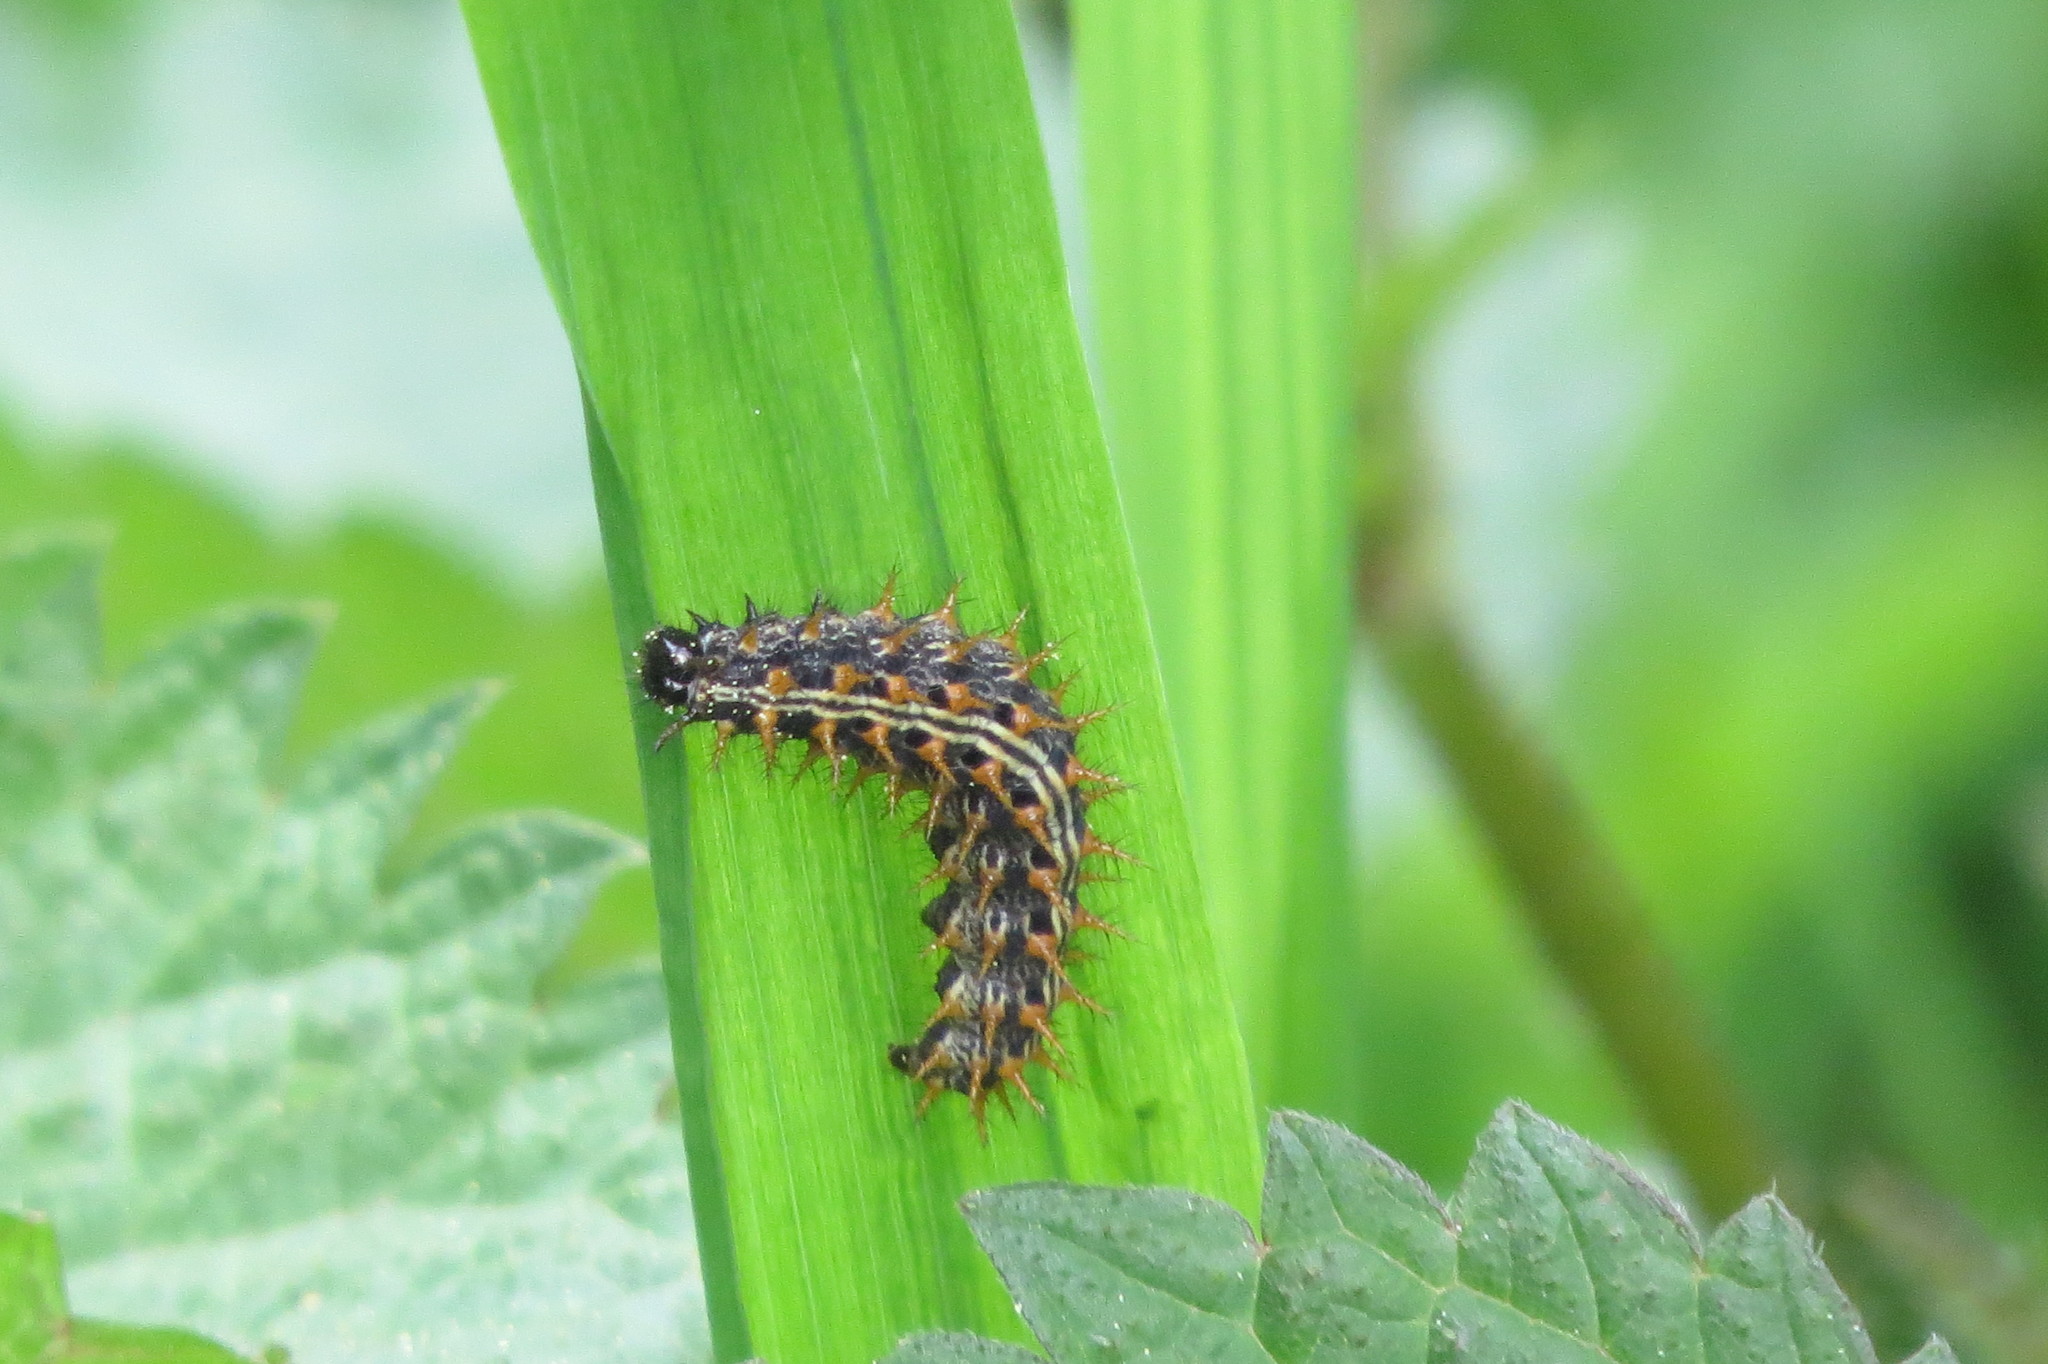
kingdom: Animalia
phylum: Arthropoda
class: Insecta
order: Lepidoptera
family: Nymphalidae
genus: Argynnis
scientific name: Argynnis paphia
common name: Silver-washed fritillary
